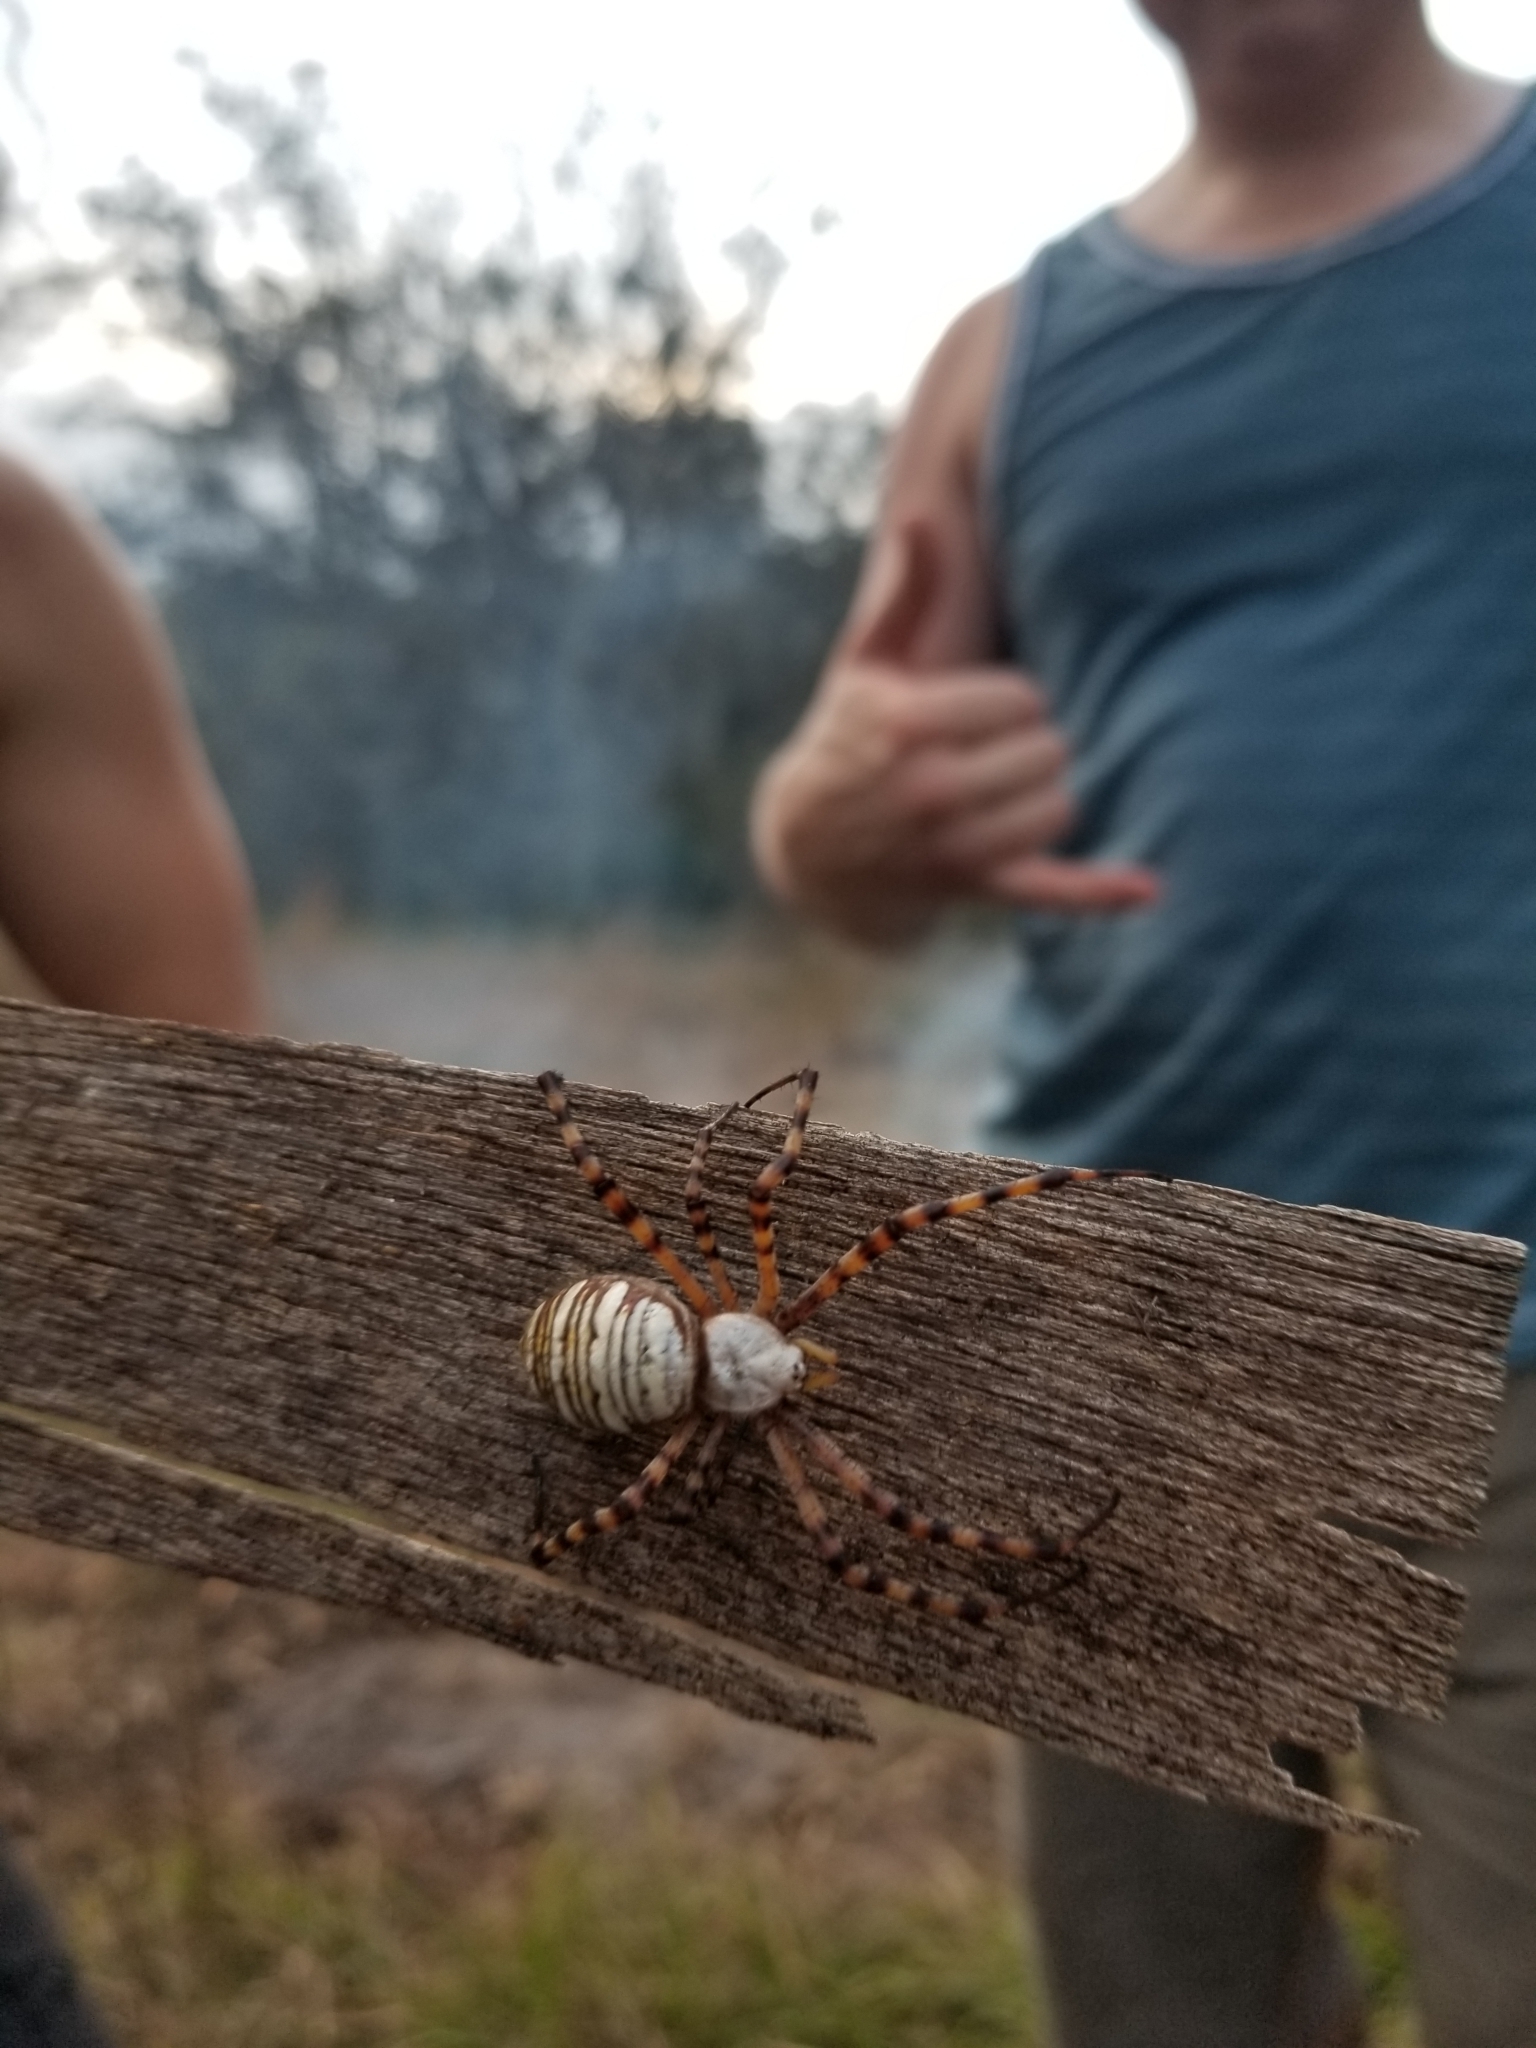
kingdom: Animalia
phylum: Arthropoda
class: Arachnida
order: Araneae
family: Araneidae
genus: Argiope
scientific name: Argiope trifasciata
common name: Banded garden spider
